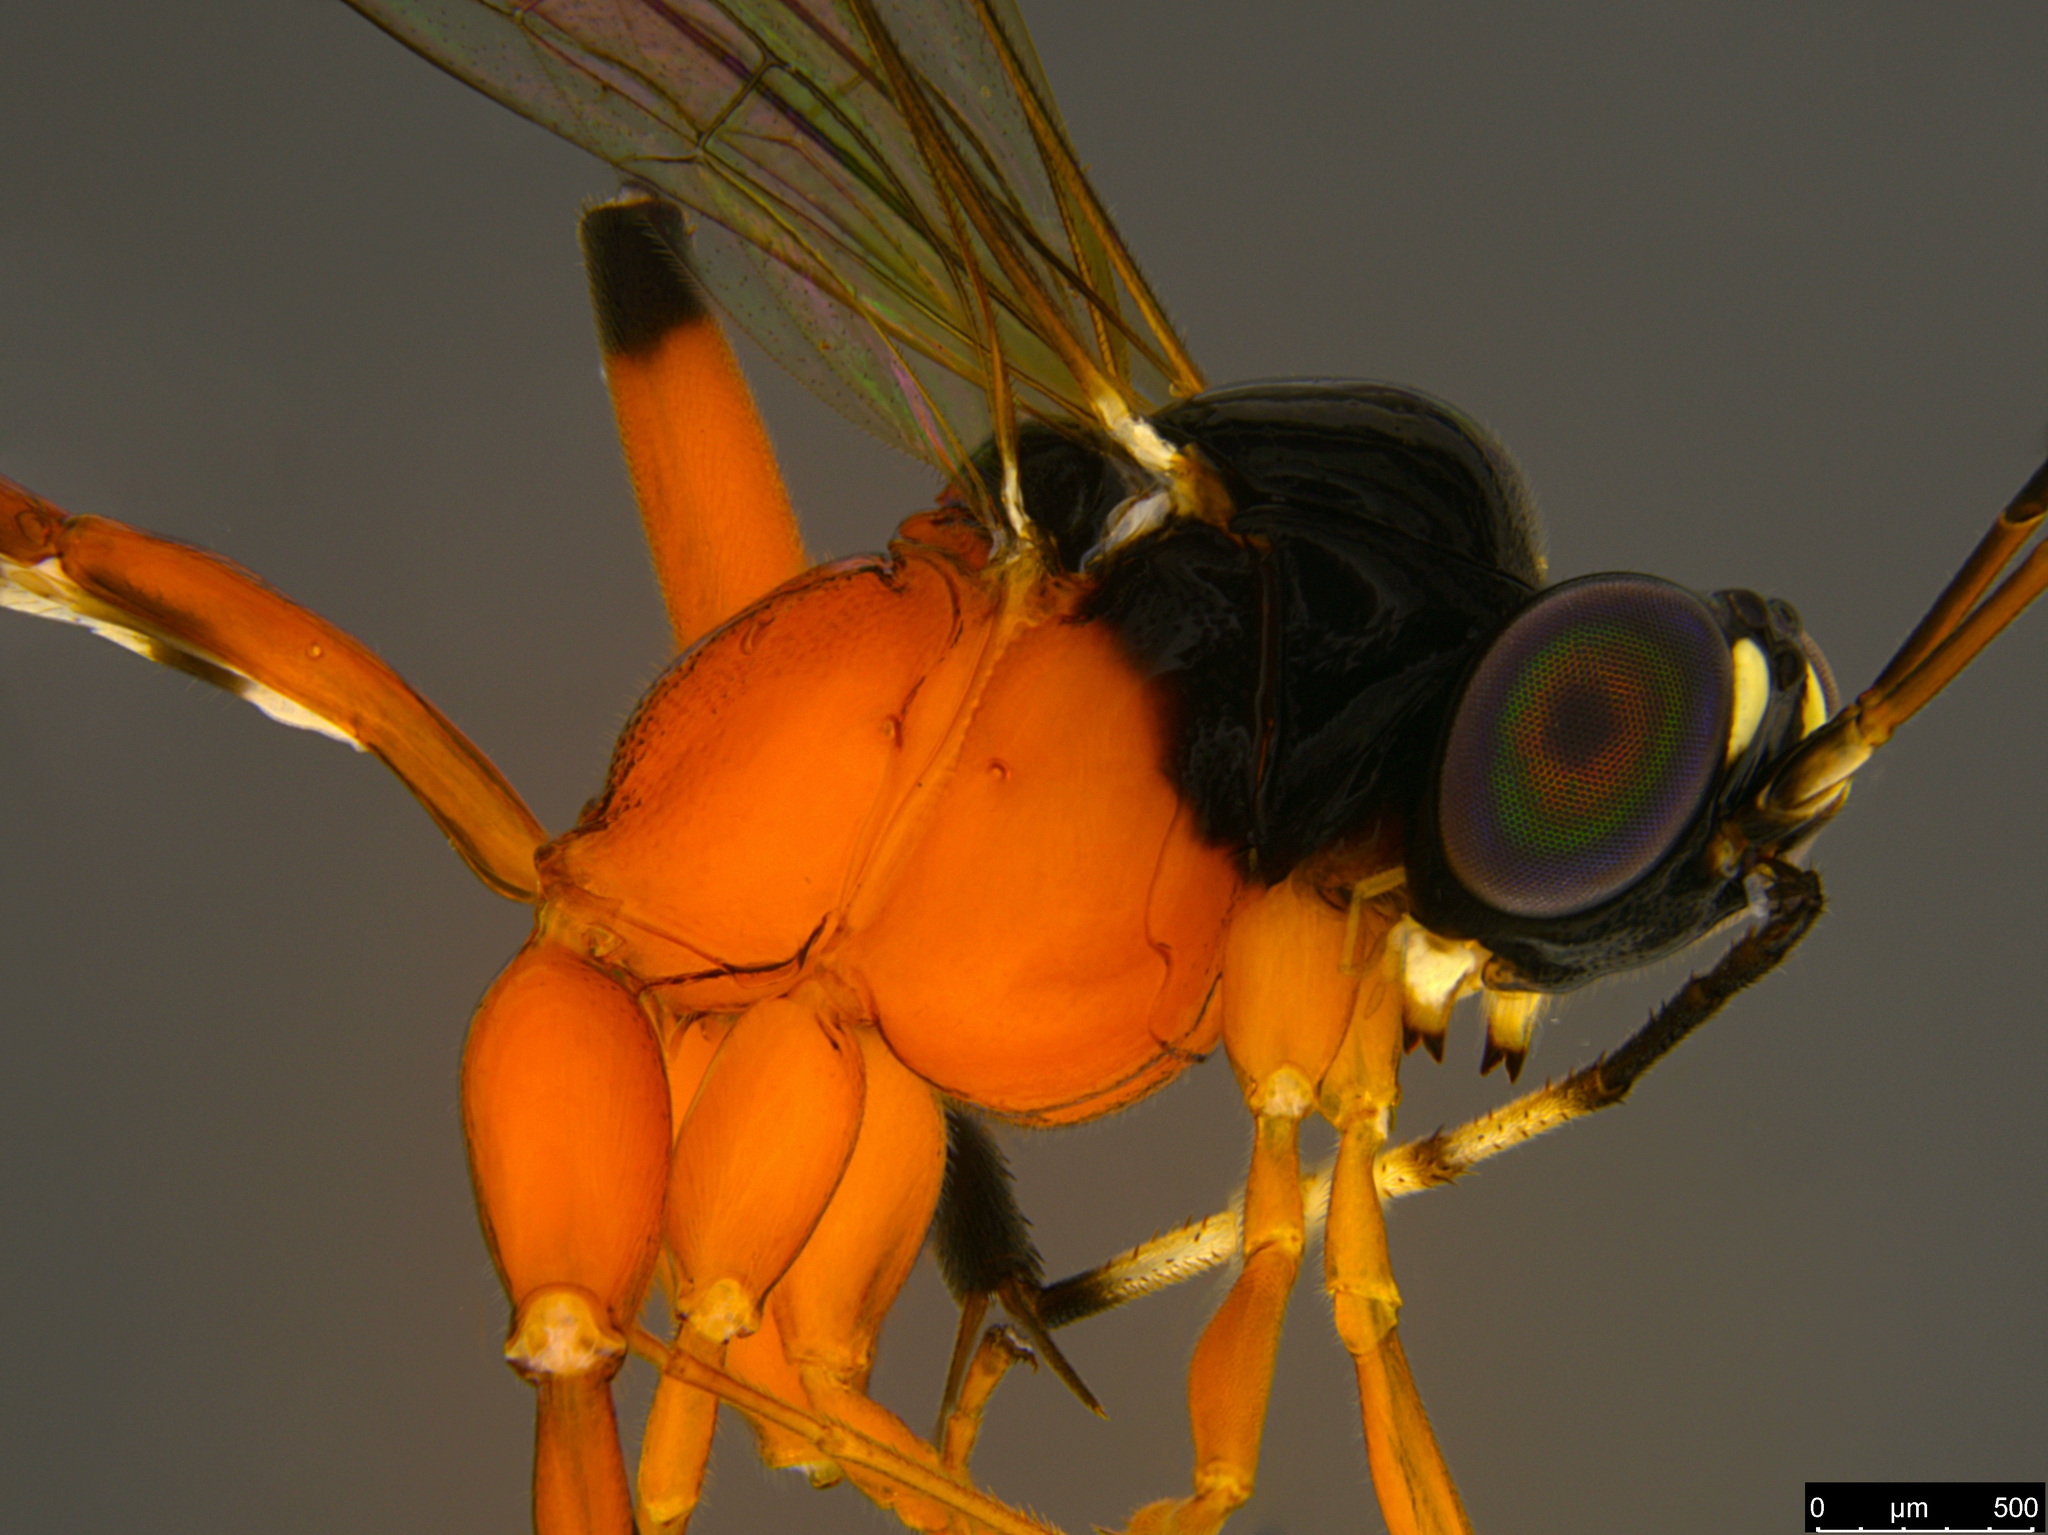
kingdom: Animalia
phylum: Arthropoda
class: Insecta
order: Hymenoptera
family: Ichneumonidae
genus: Leptobatopsis
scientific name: Leptobatopsis mesominiata
